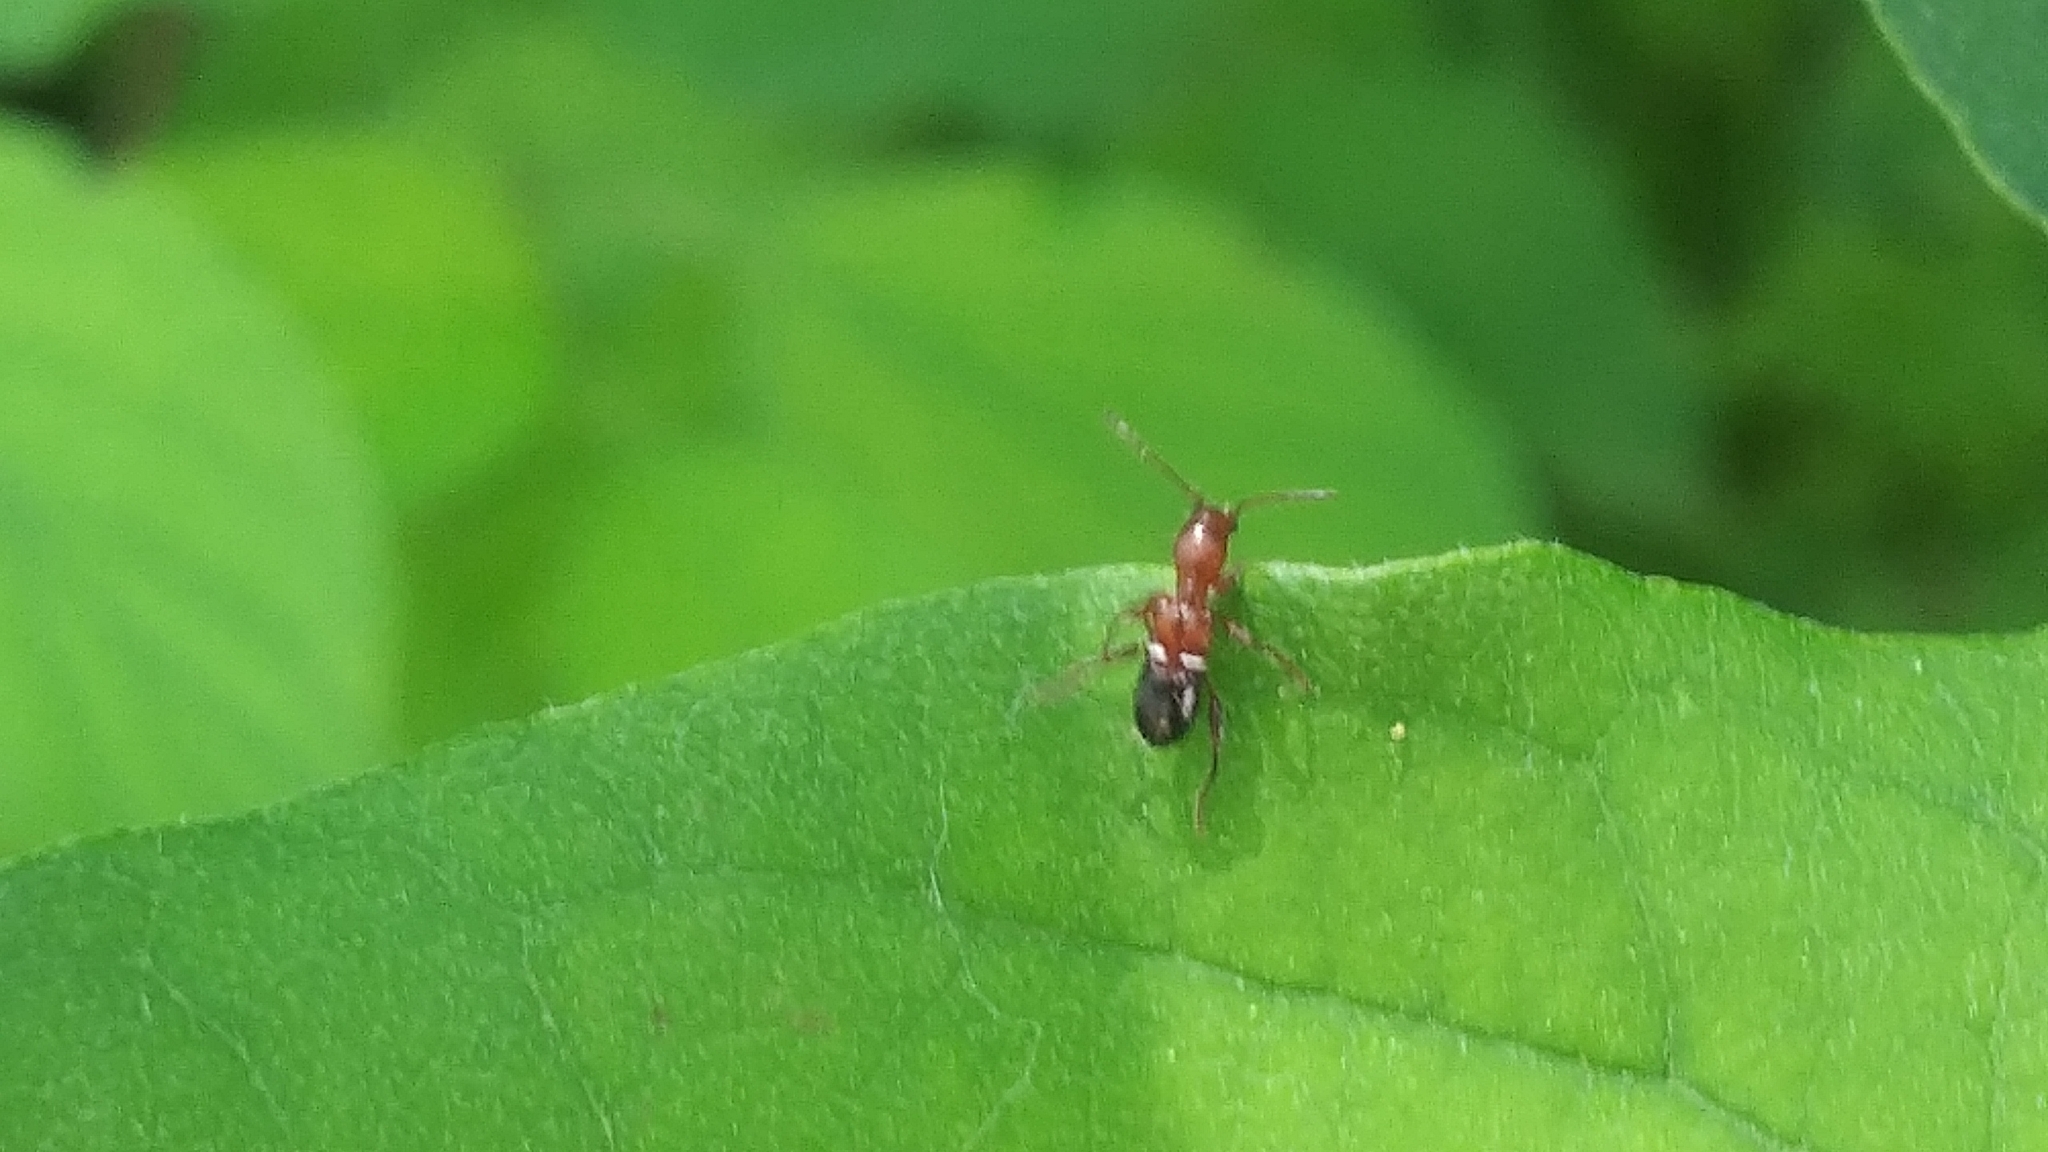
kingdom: Animalia
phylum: Arthropoda
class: Insecta
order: Coleoptera
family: Cerambycidae
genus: Euderces
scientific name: Euderces reichei
